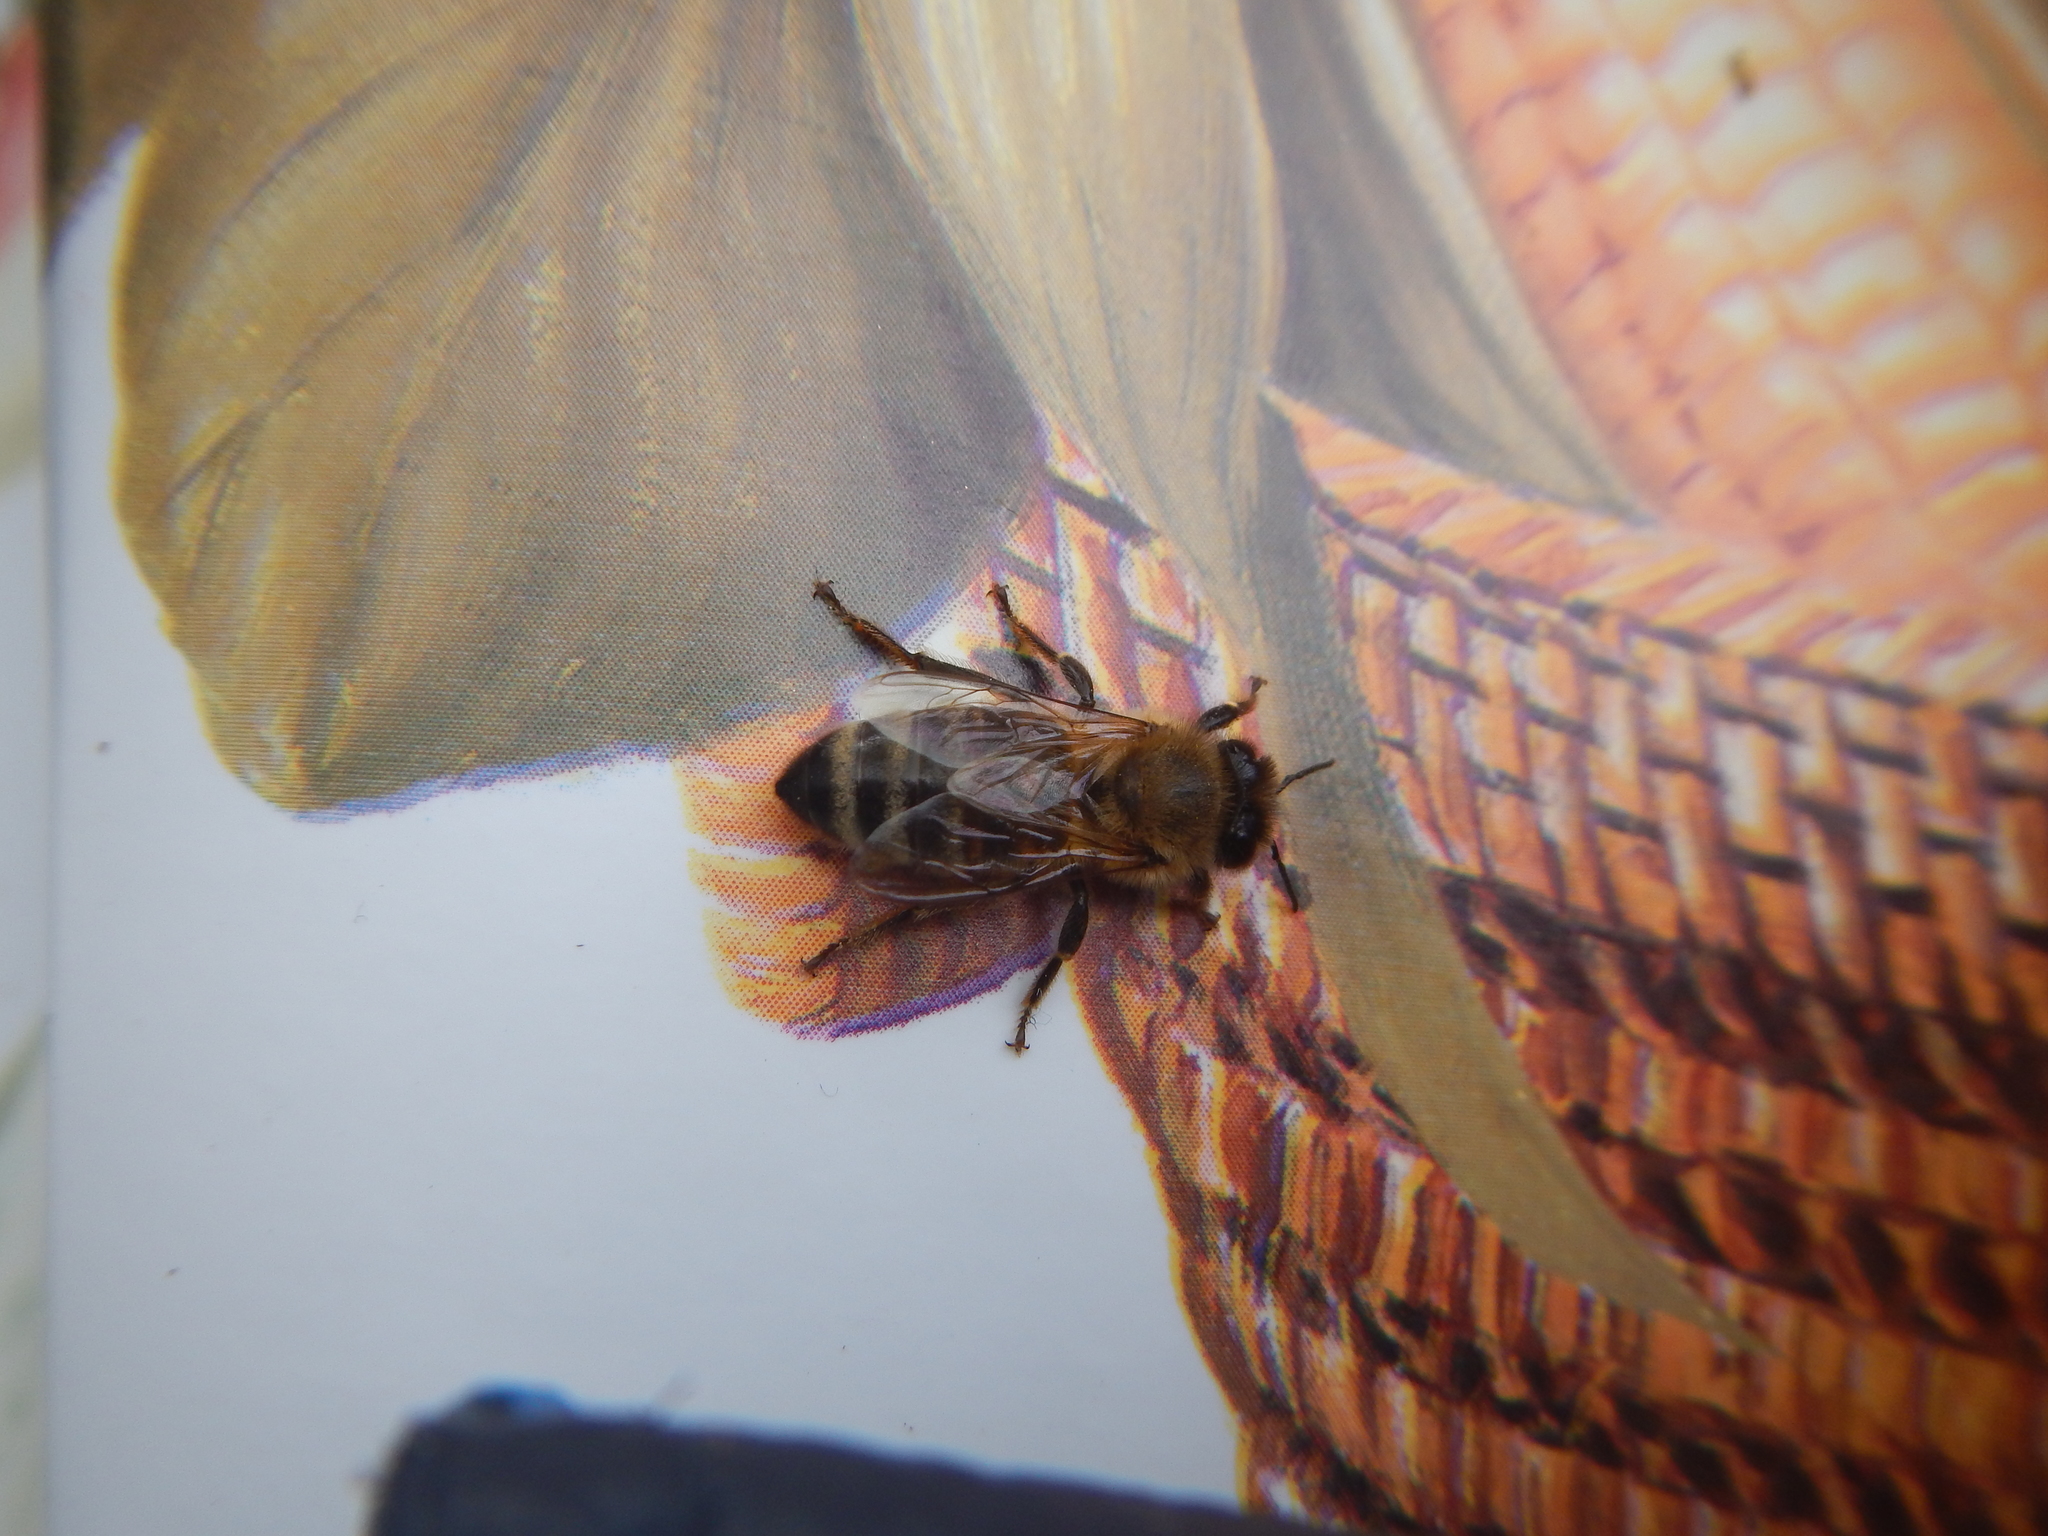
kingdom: Animalia
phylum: Arthropoda
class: Insecta
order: Hymenoptera
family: Apidae
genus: Apis
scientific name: Apis mellifera
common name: Honey bee
